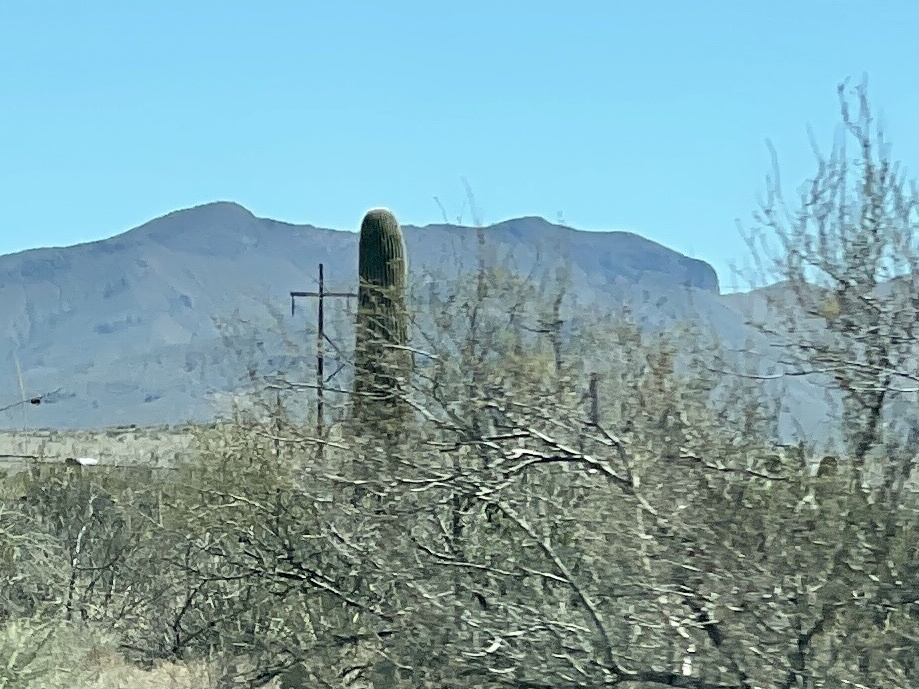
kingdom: Plantae
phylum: Tracheophyta
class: Magnoliopsida
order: Caryophyllales
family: Cactaceae
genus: Carnegiea
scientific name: Carnegiea gigantea
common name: Saguaro
